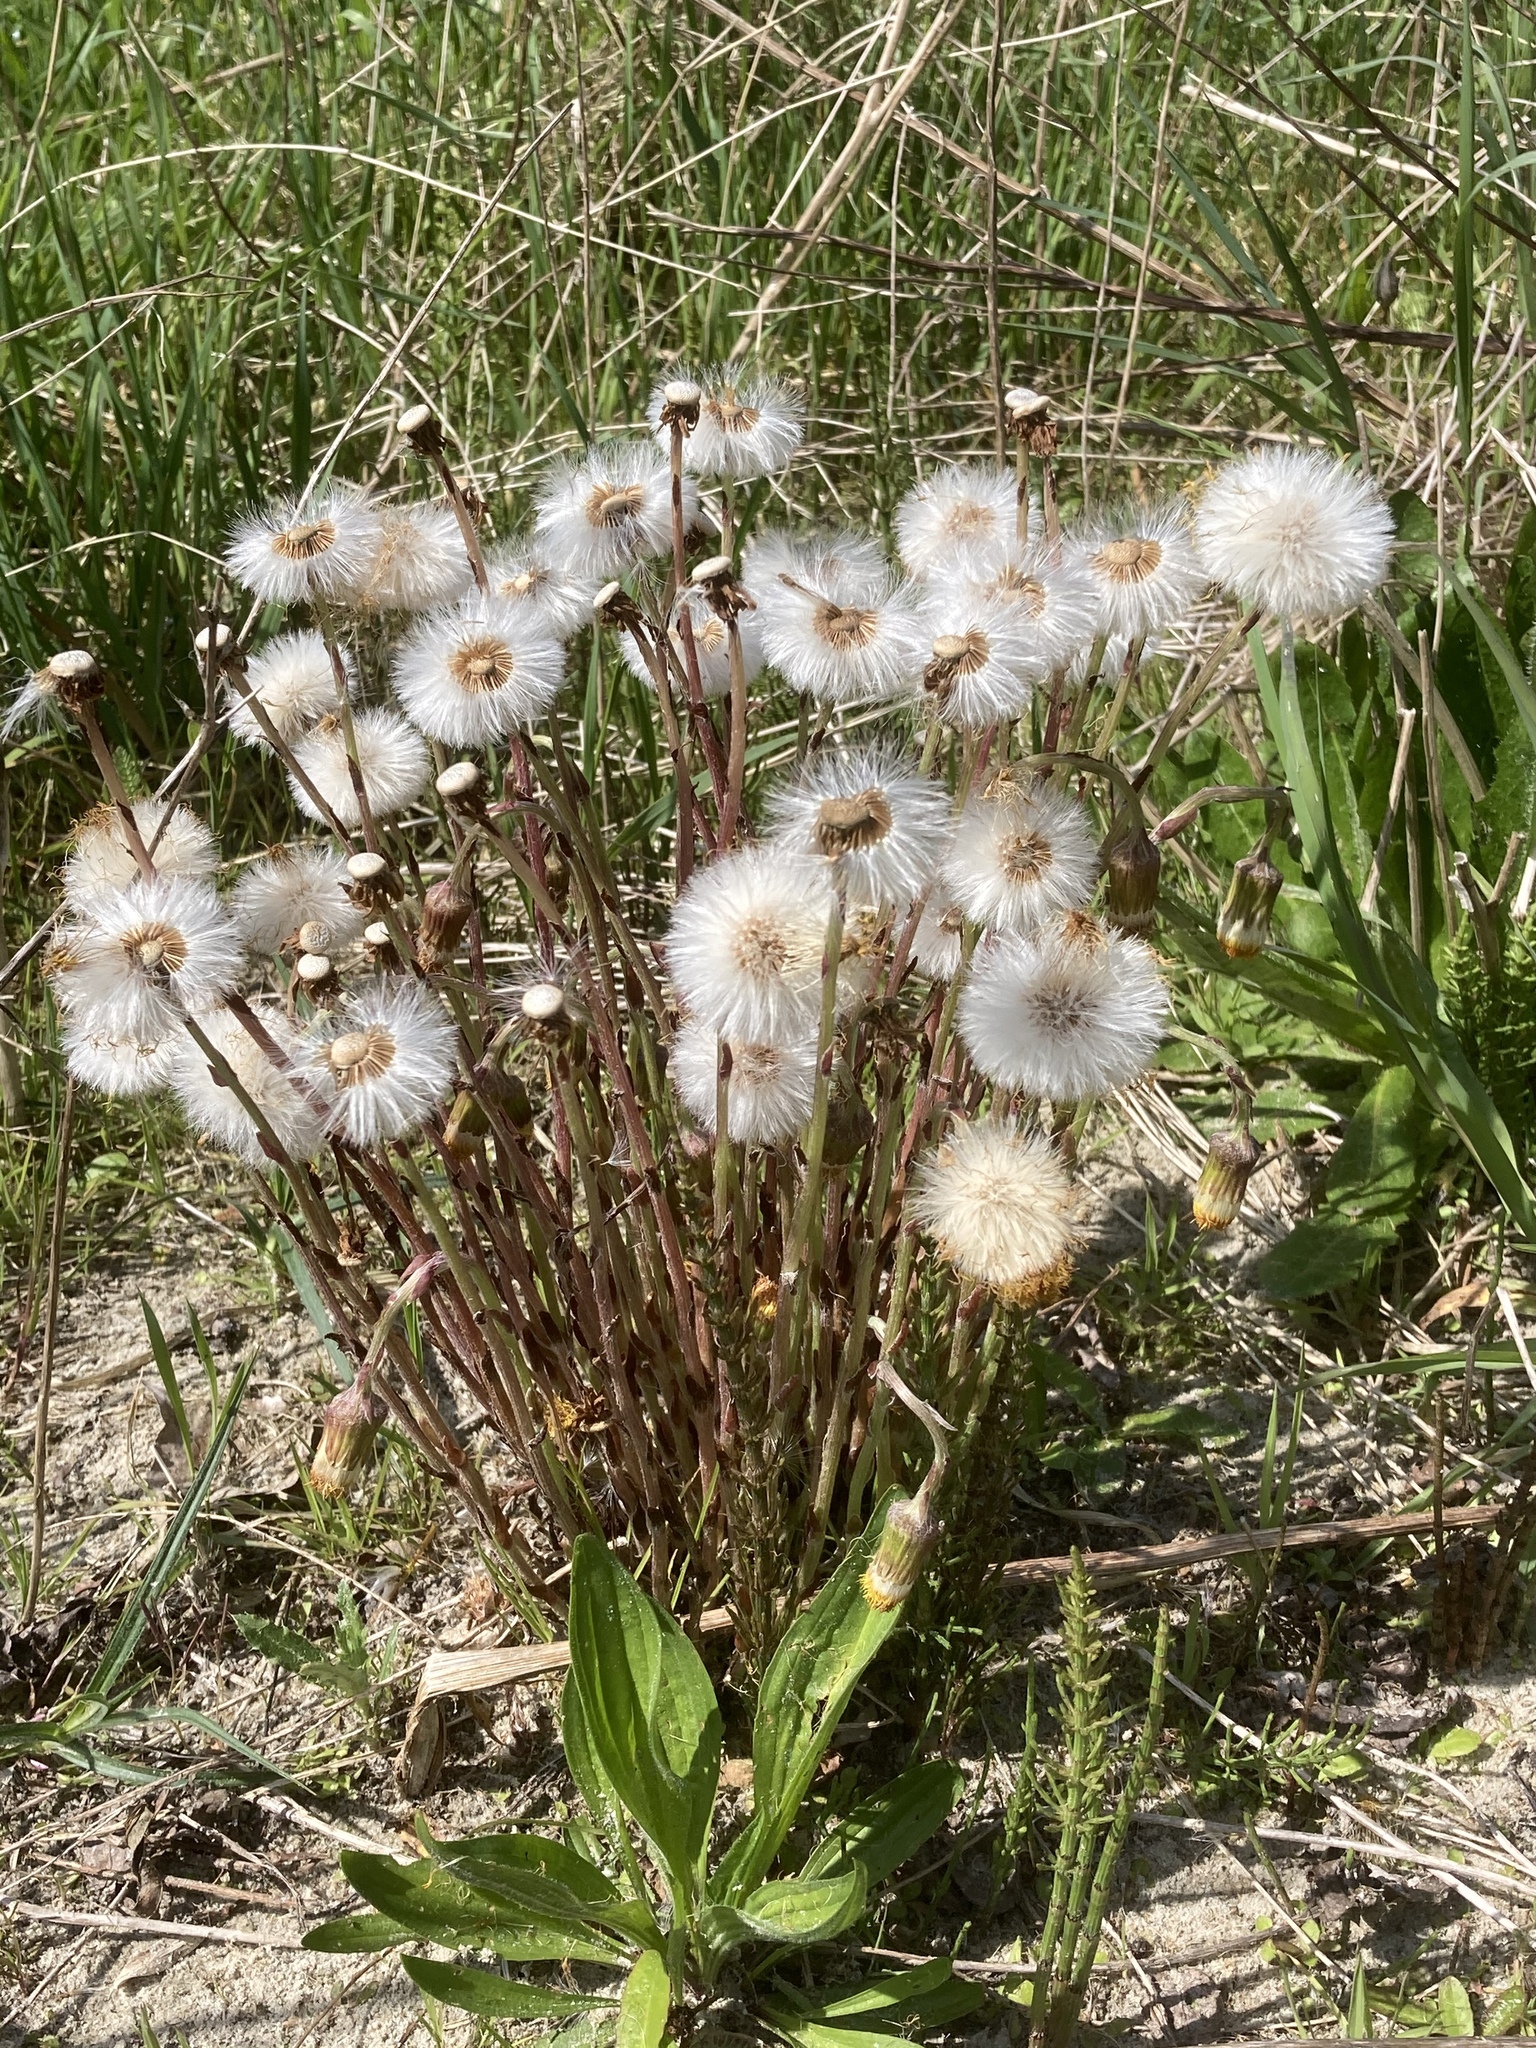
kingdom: Plantae
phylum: Tracheophyta
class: Magnoliopsida
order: Asterales
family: Asteraceae
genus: Tussilago
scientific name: Tussilago farfara
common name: Coltsfoot
